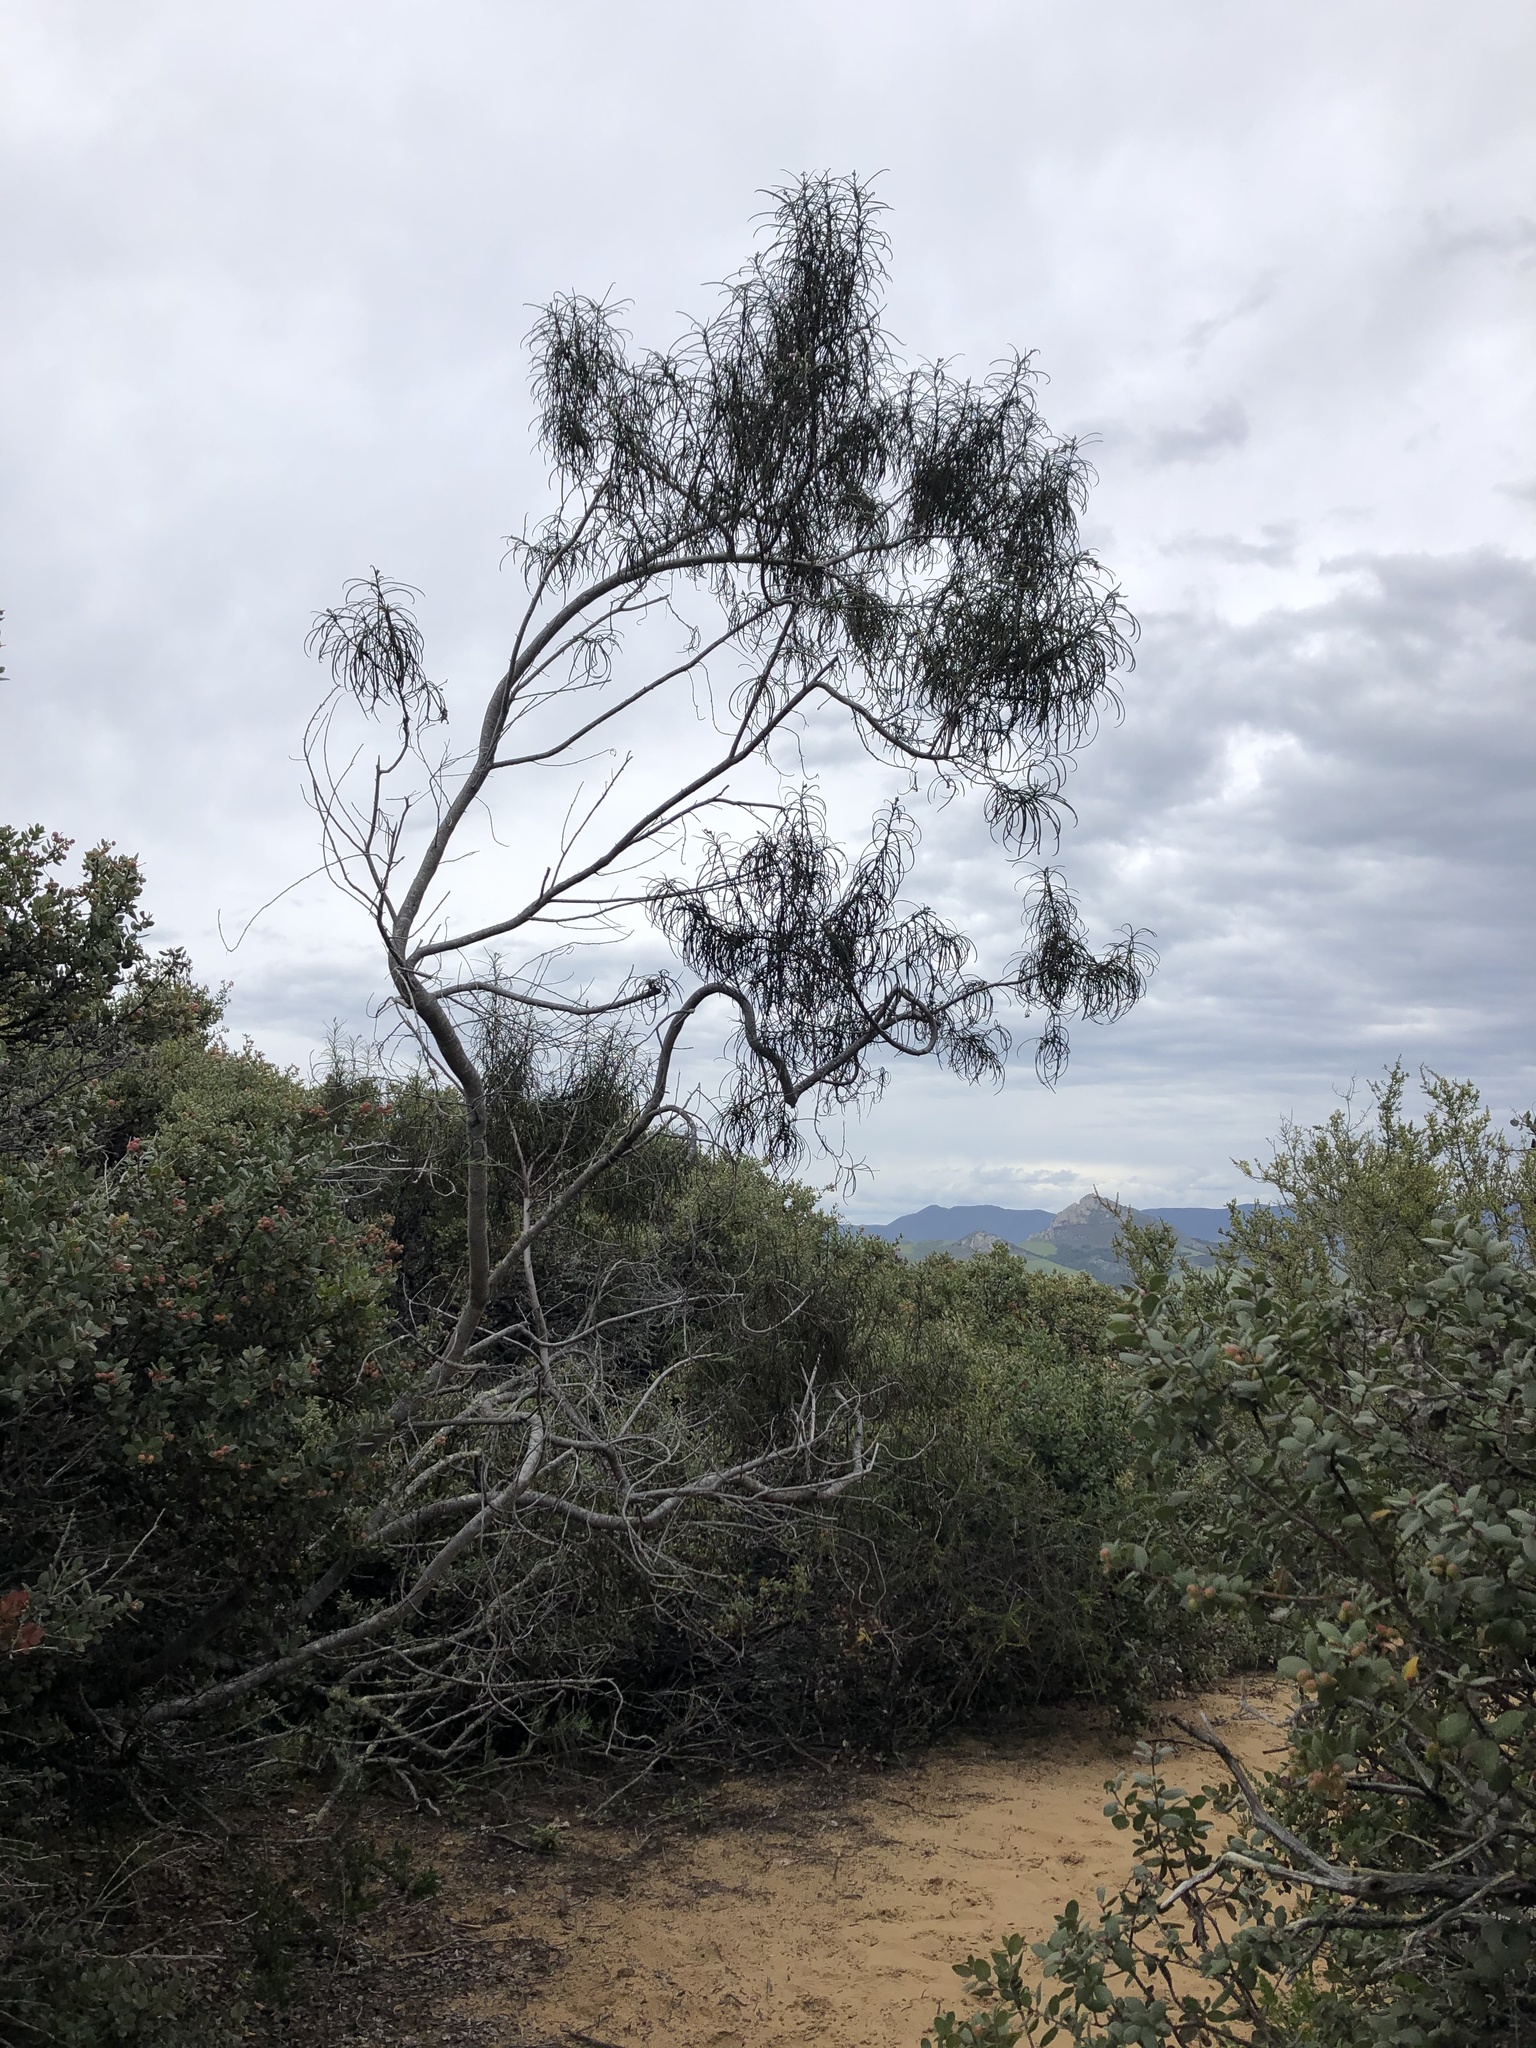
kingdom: Plantae
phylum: Tracheophyta
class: Magnoliopsida
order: Boraginales
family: Namaceae
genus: Eriodictyon
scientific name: Eriodictyon altissimum
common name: Indian knob mountain balm
